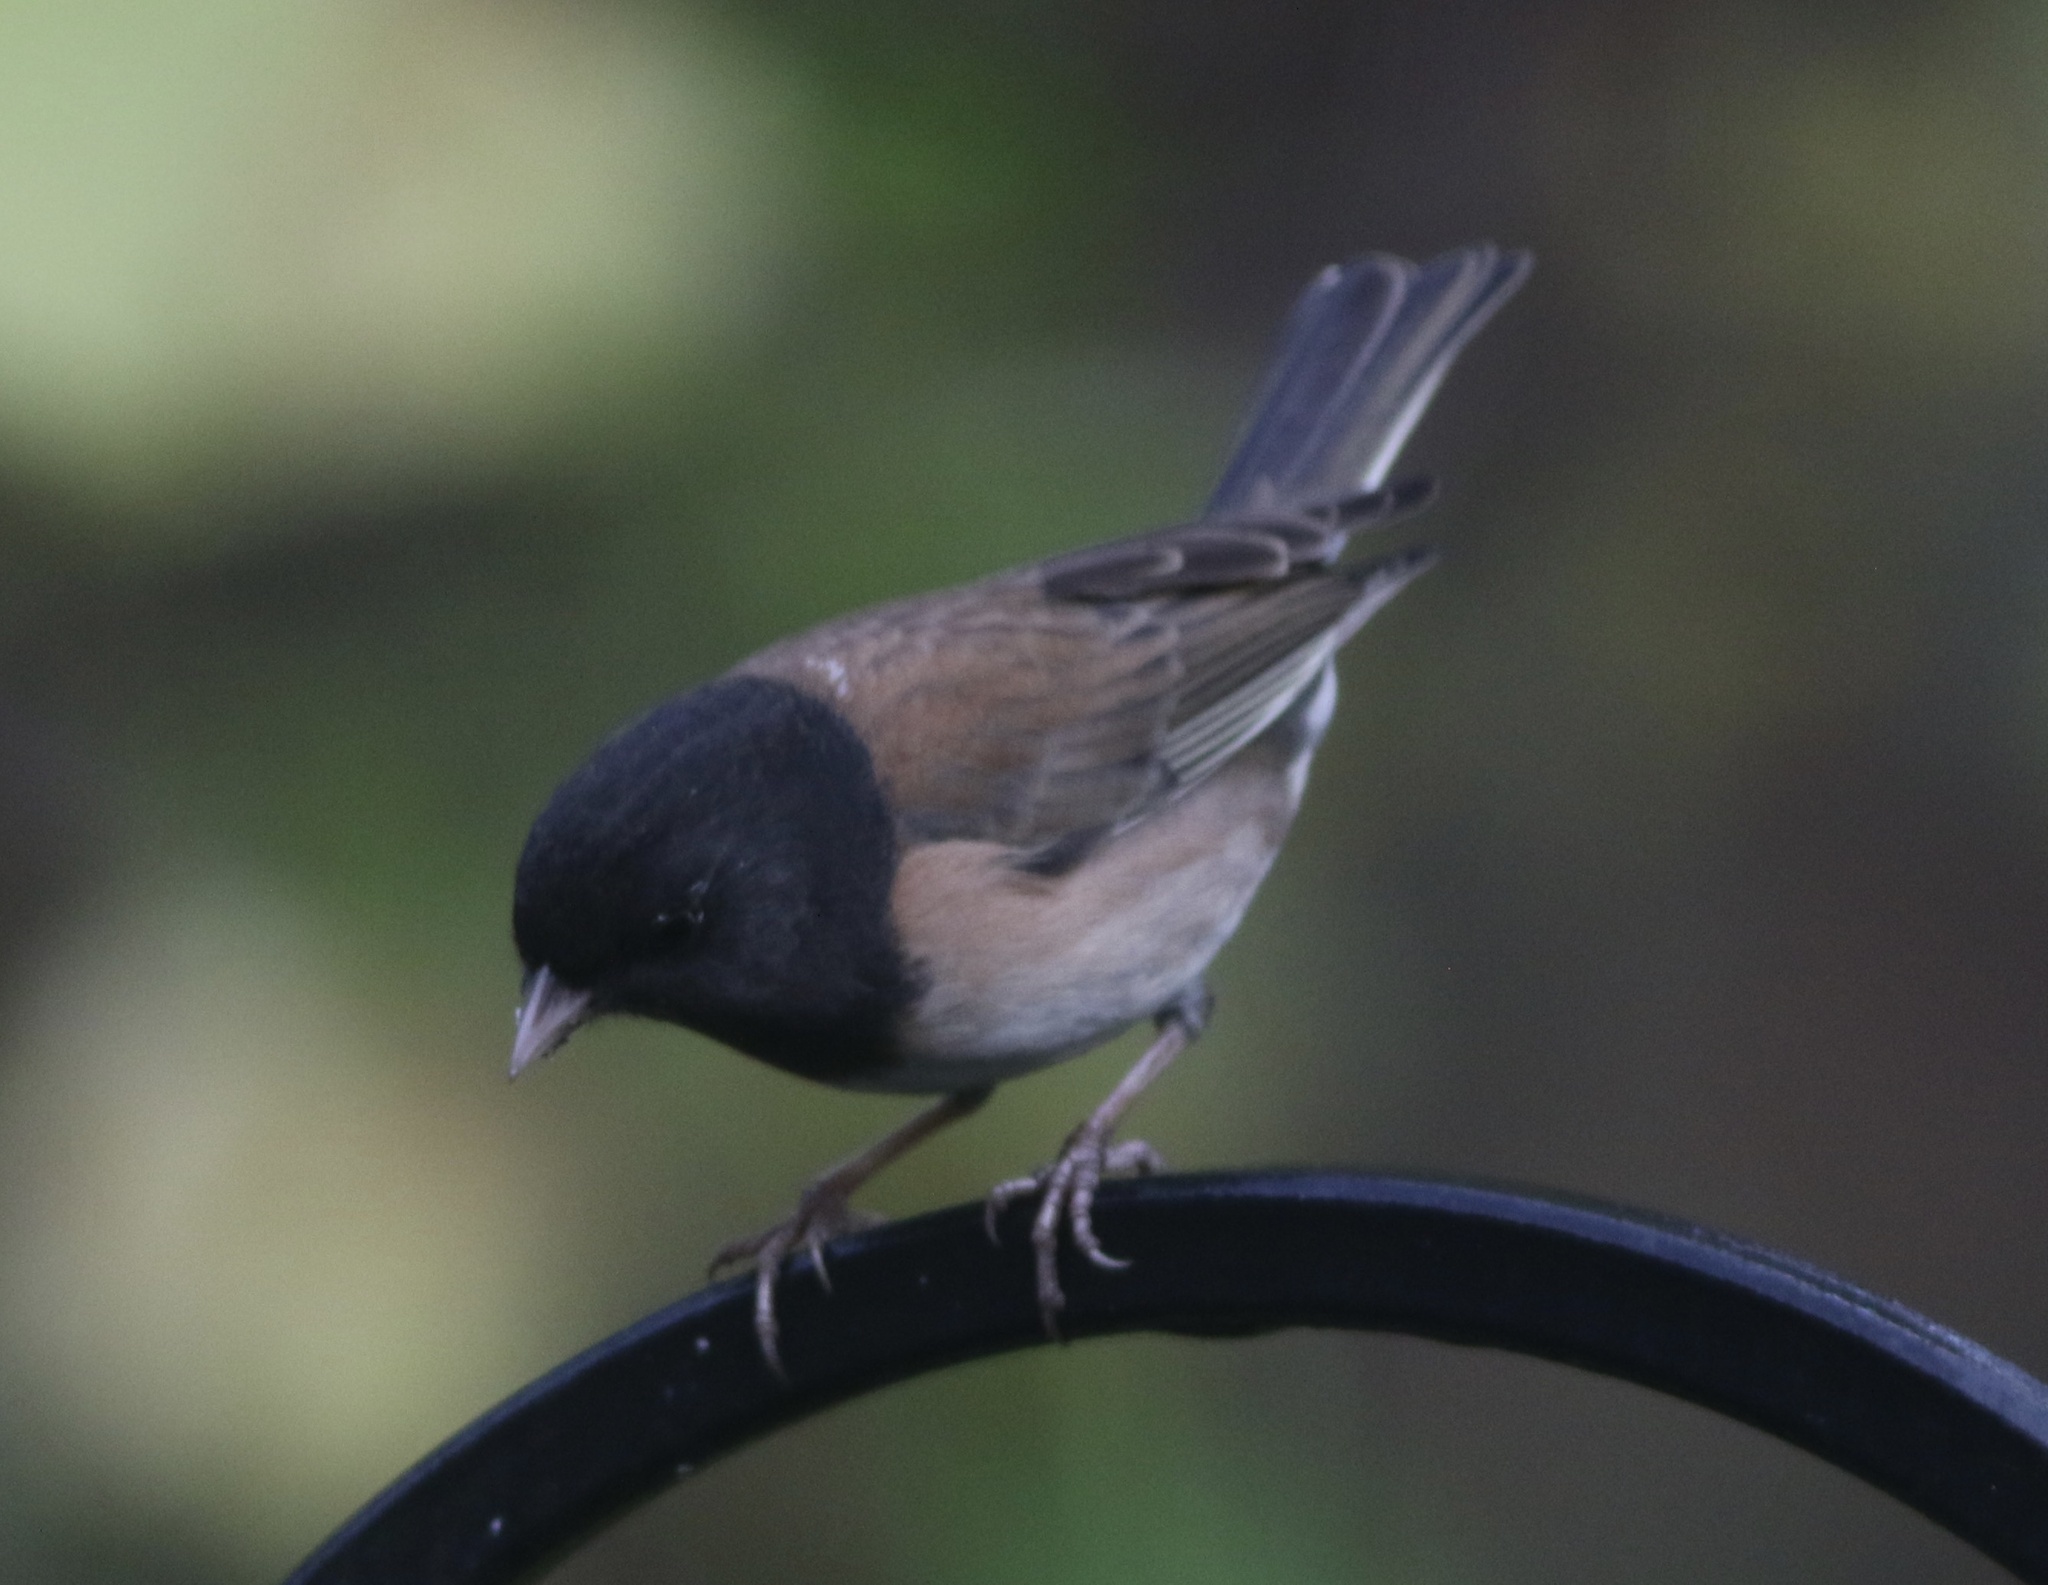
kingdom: Animalia
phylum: Chordata
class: Aves
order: Passeriformes
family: Passerellidae
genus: Junco
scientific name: Junco hyemalis
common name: Dark-eyed junco
